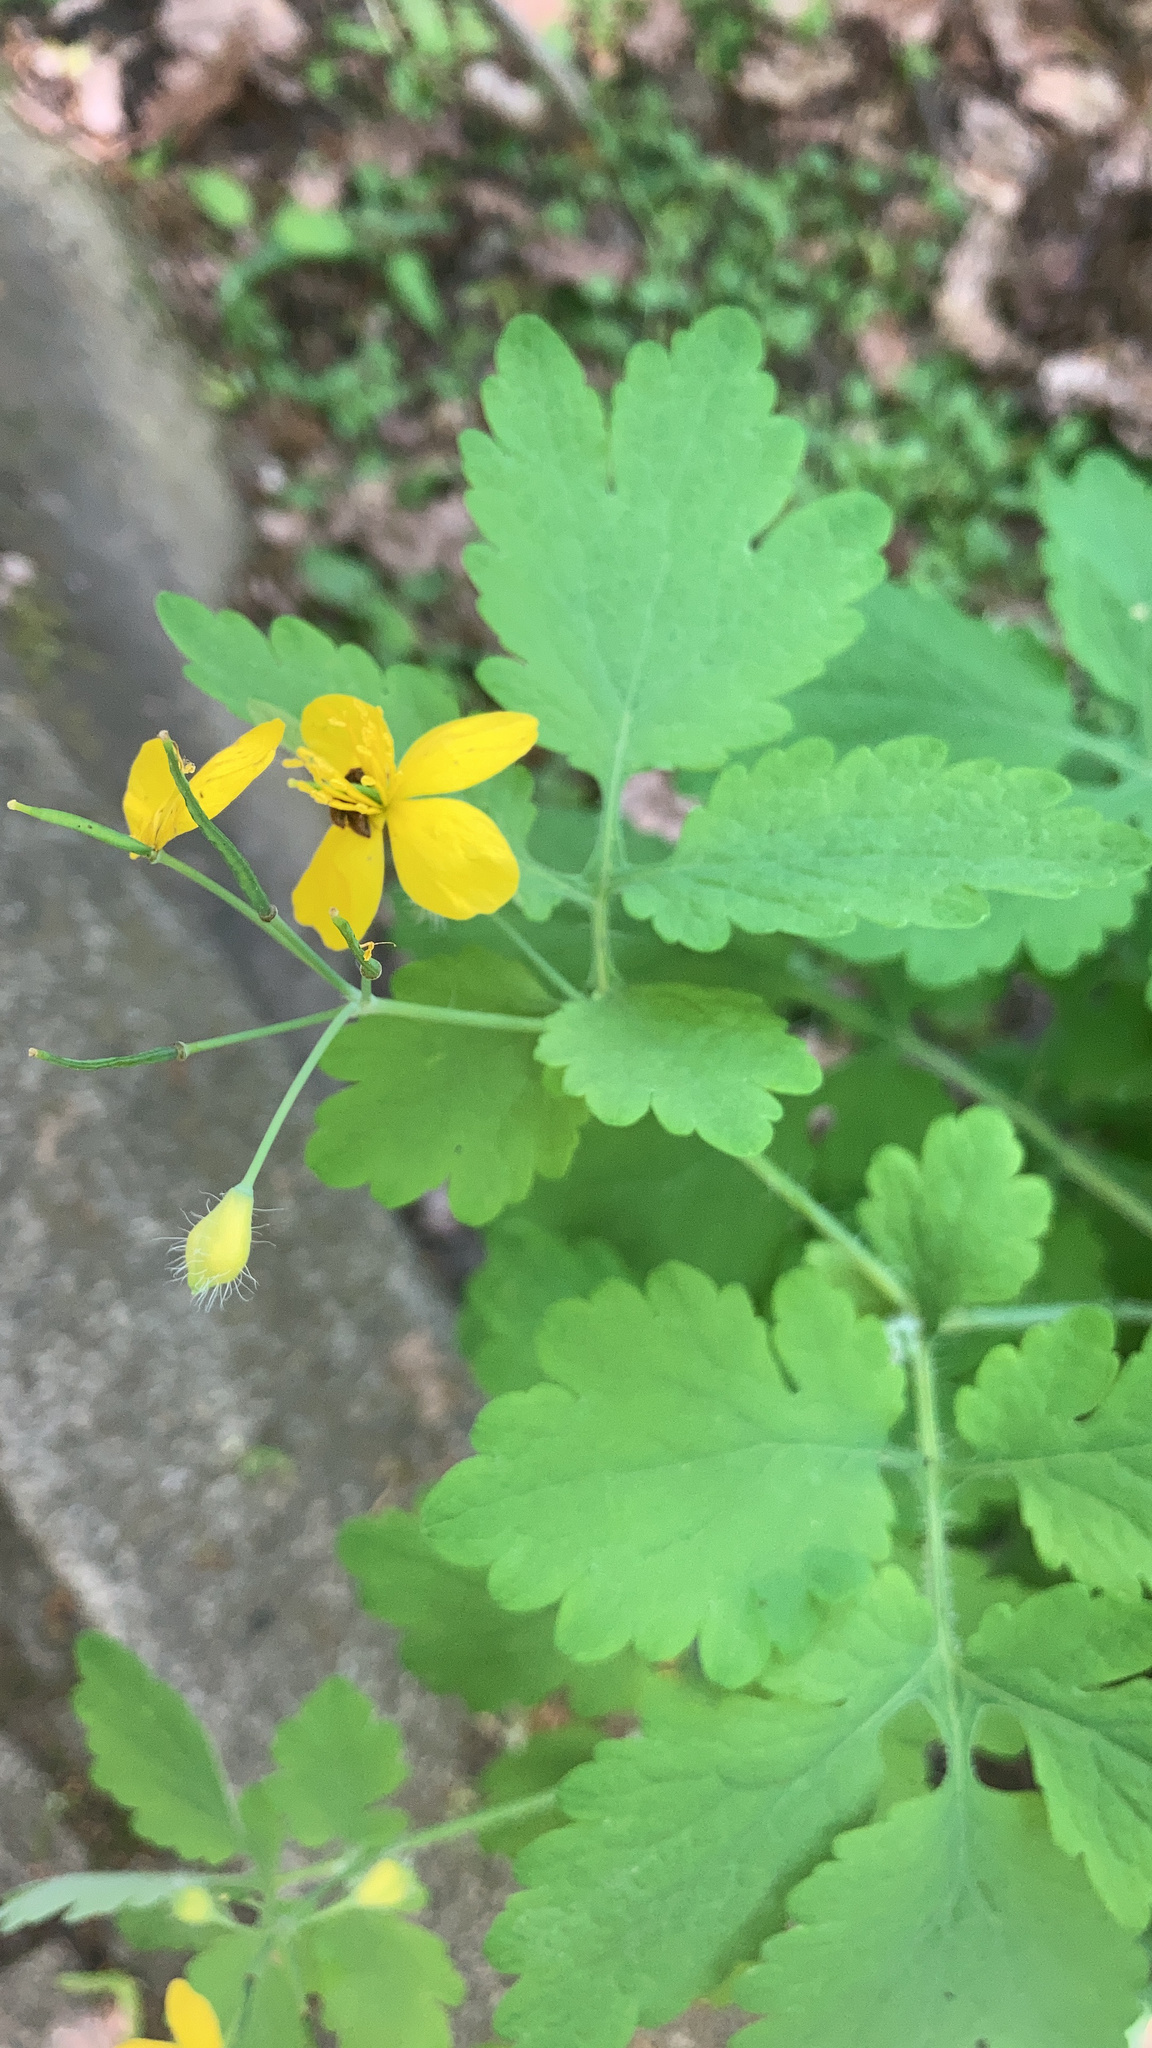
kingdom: Plantae
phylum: Tracheophyta
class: Magnoliopsida
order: Ranunculales
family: Papaveraceae
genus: Chelidonium
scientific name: Chelidonium majus
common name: Greater celandine
